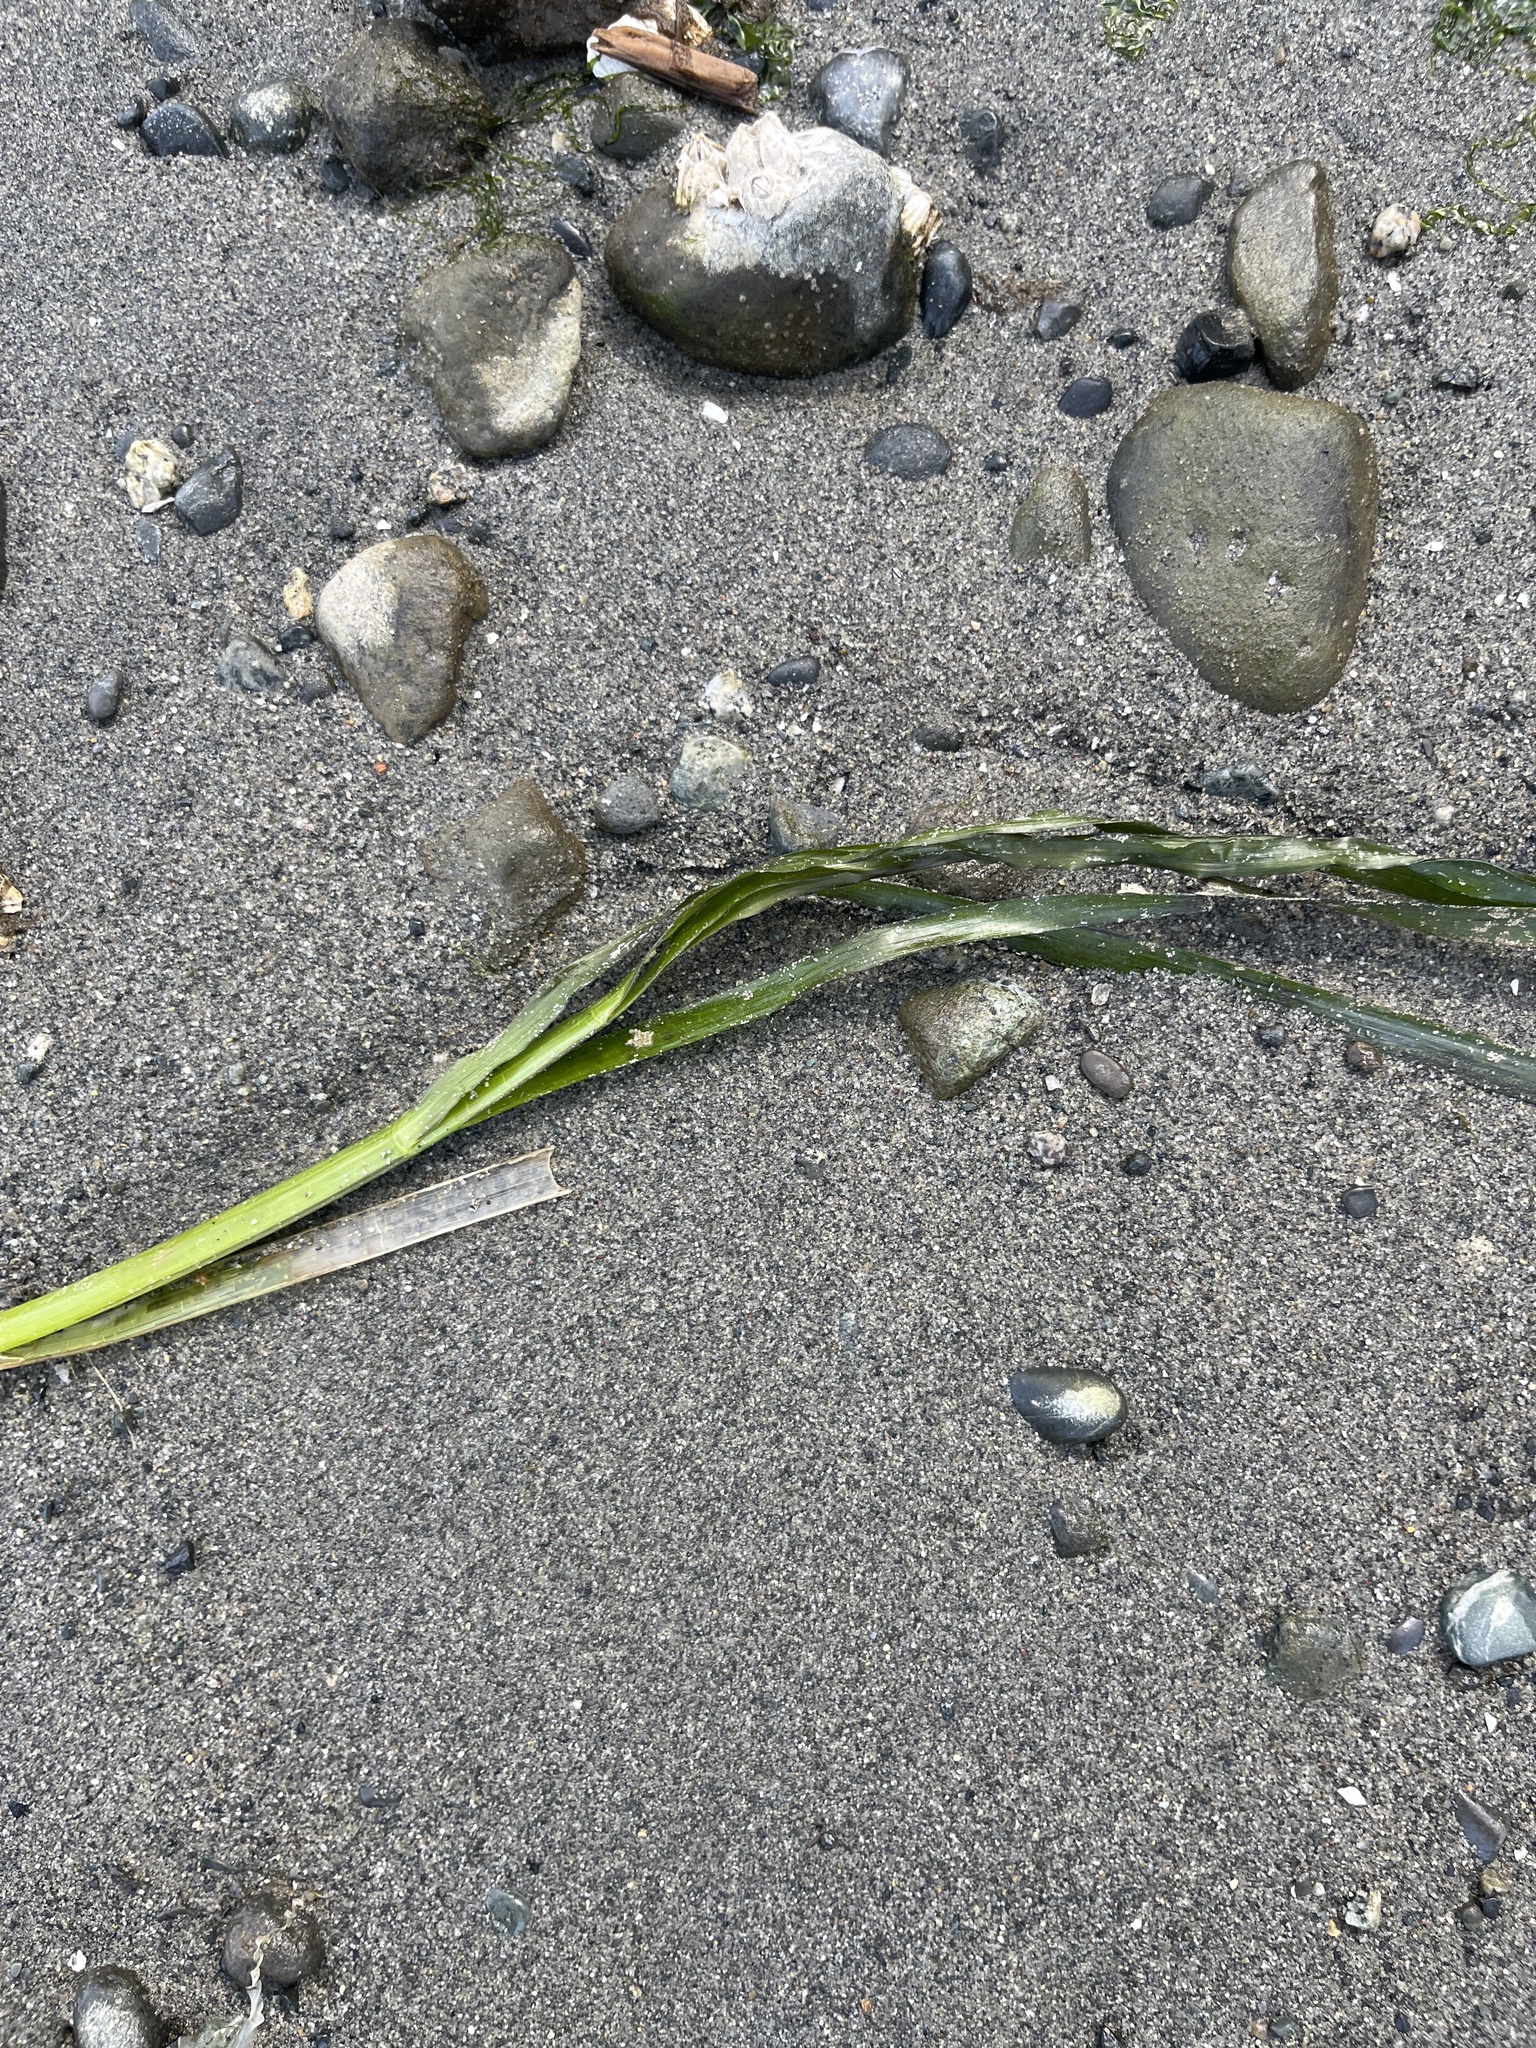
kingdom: Plantae
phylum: Tracheophyta
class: Liliopsida
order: Alismatales
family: Zosteraceae
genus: Zostera
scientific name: Zostera marina
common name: Eelgrass
